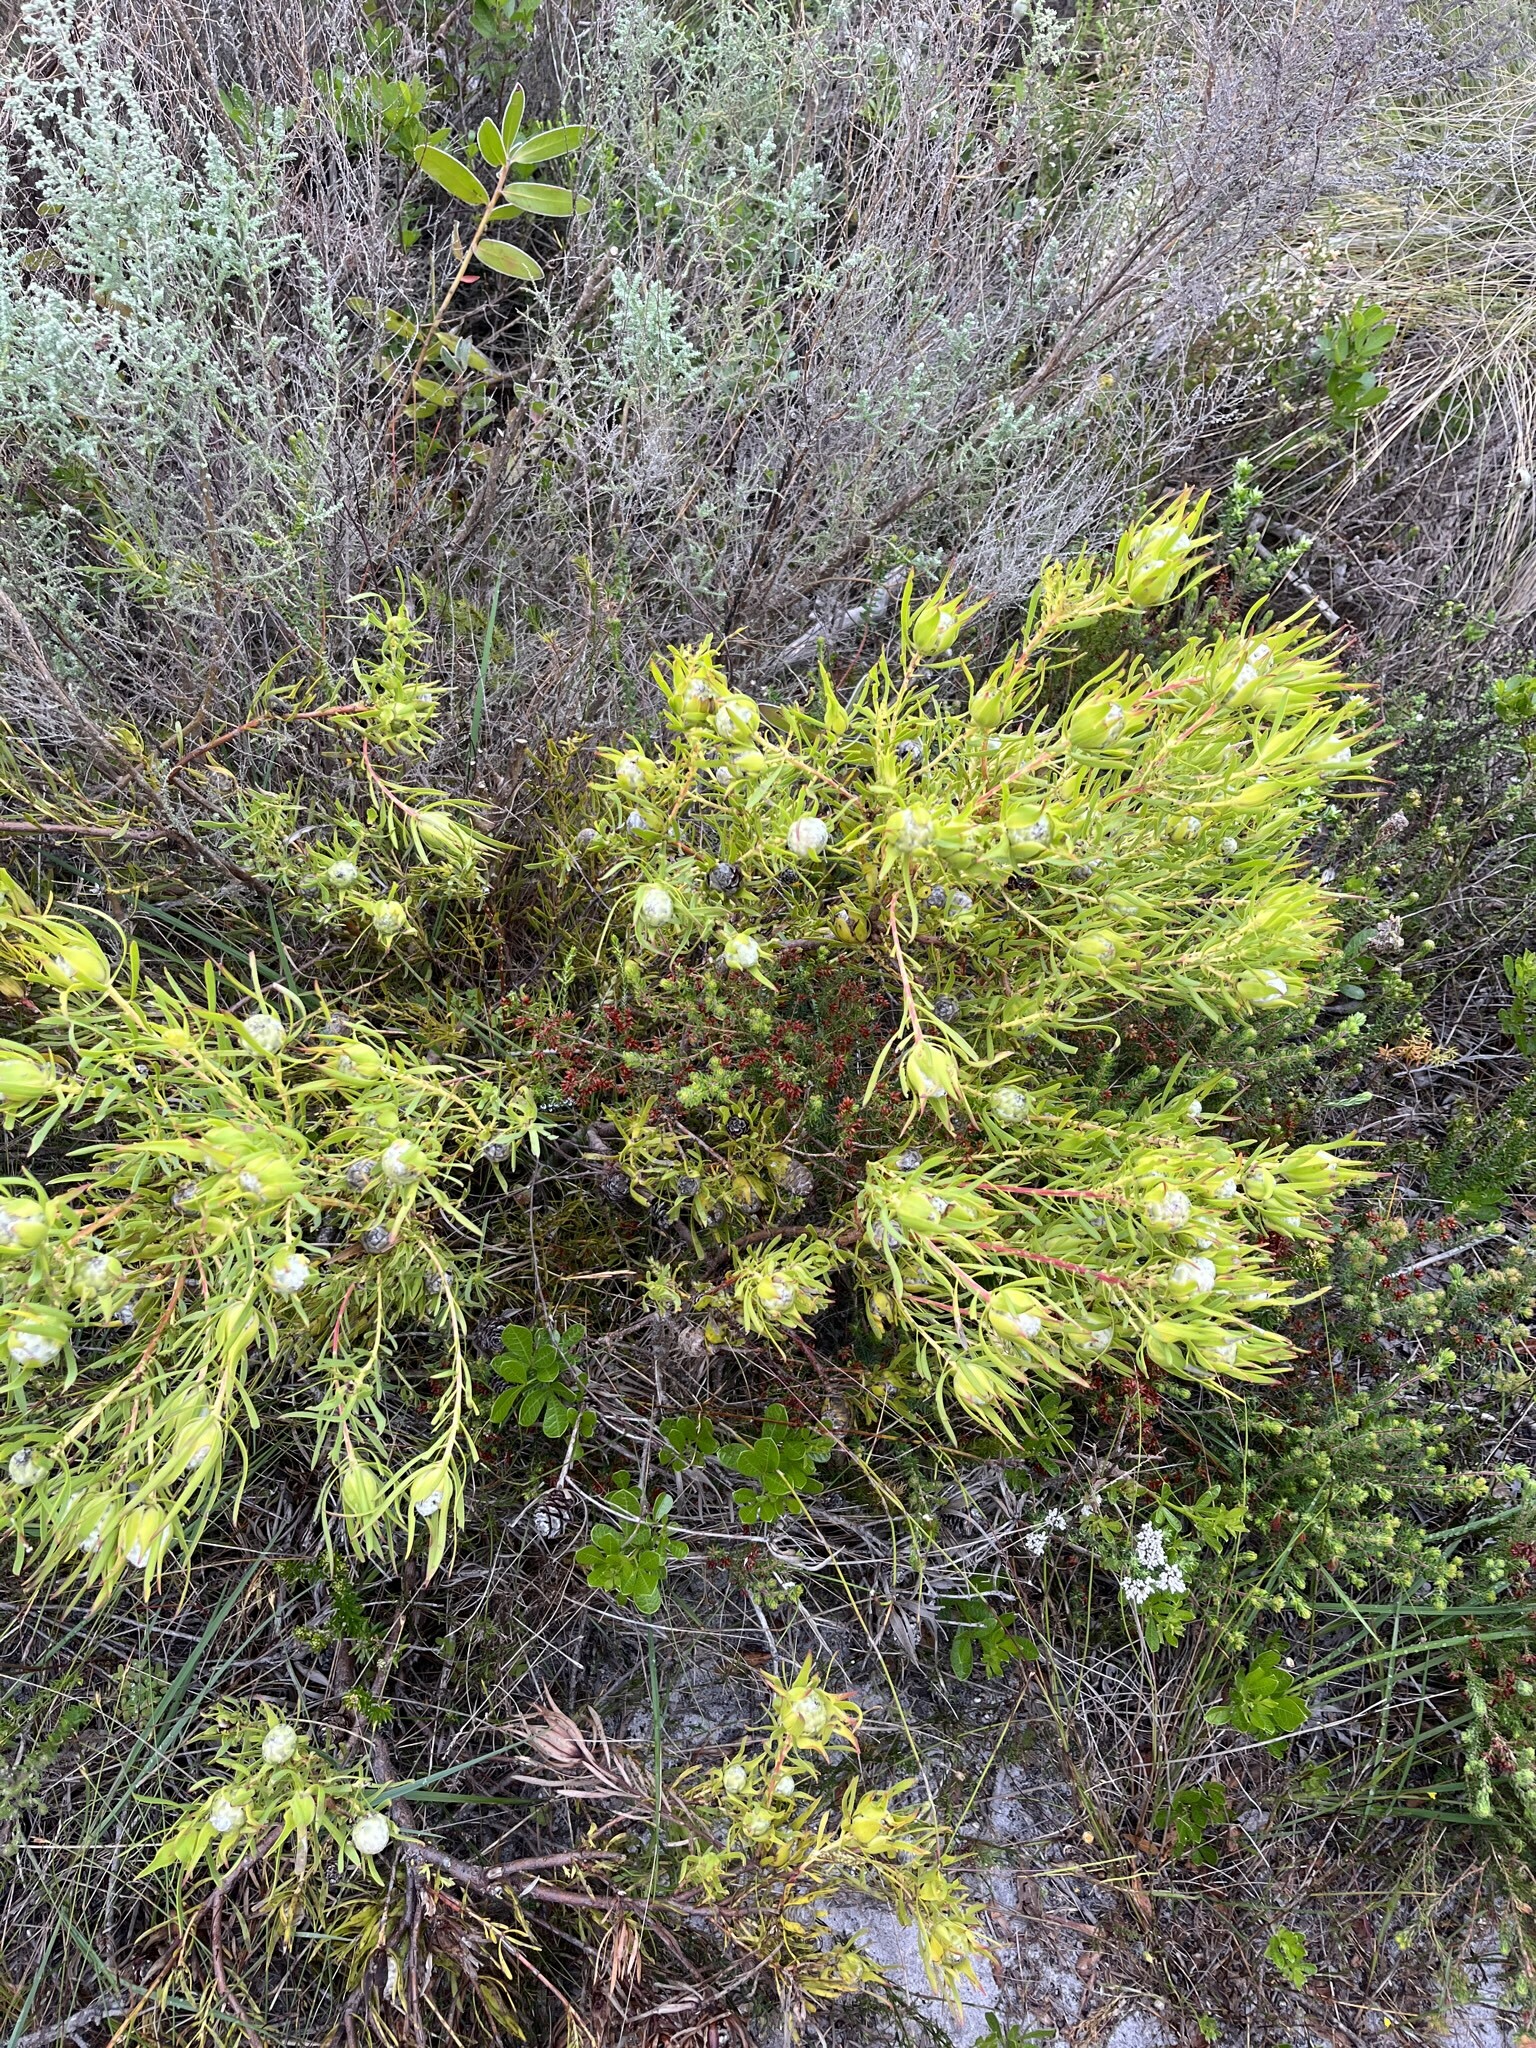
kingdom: Plantae
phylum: Tracheophyta
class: Magnoliopsida
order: Proteales
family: Proteaceae
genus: Leucadendron
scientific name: Leucadendron salignum
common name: Common sunshine conebush
